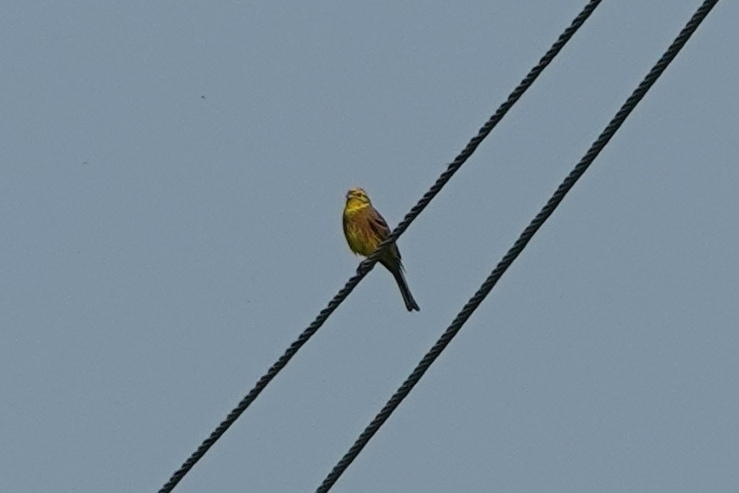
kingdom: Animalia
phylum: Chordata
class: Aves
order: Passeriformes
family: Emberizidae
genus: Emberiza
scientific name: Emberiza citrinella
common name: Yellowhammer
